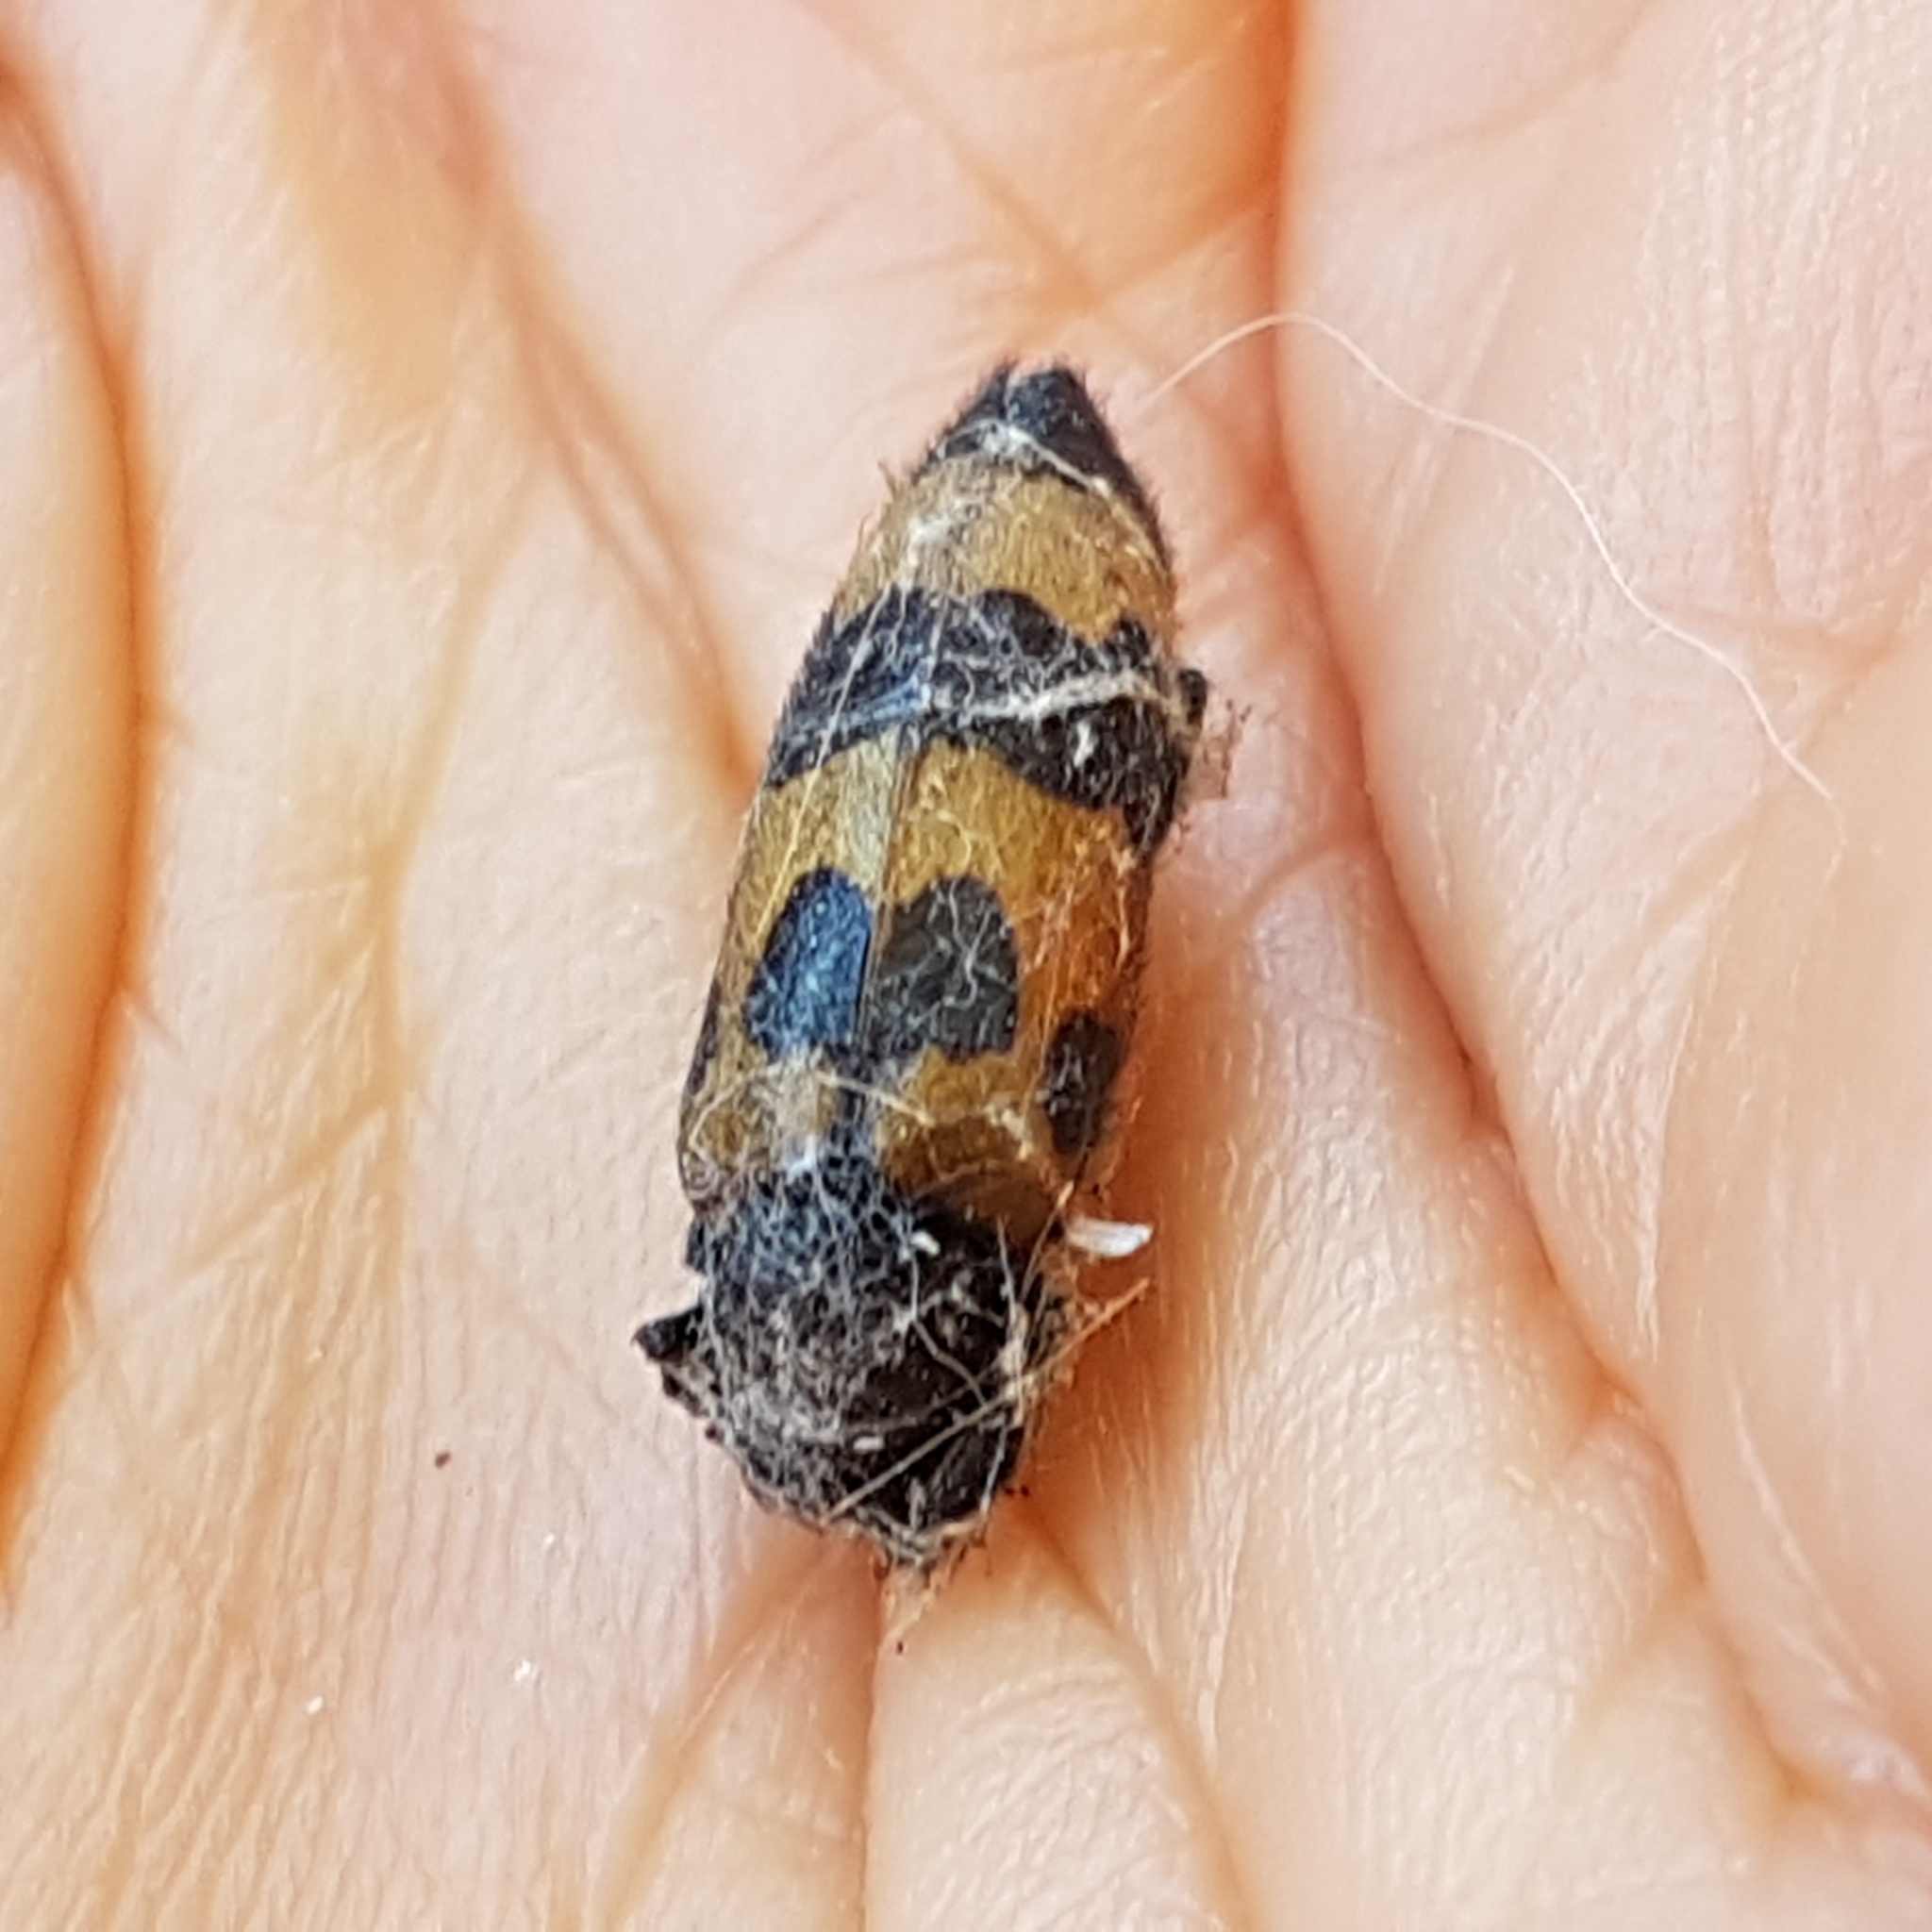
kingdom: Animalia
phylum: Arthropoda
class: Insecta
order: Coleoptera
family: Meloidae
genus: Mylabris
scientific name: Mylabris variabilis
